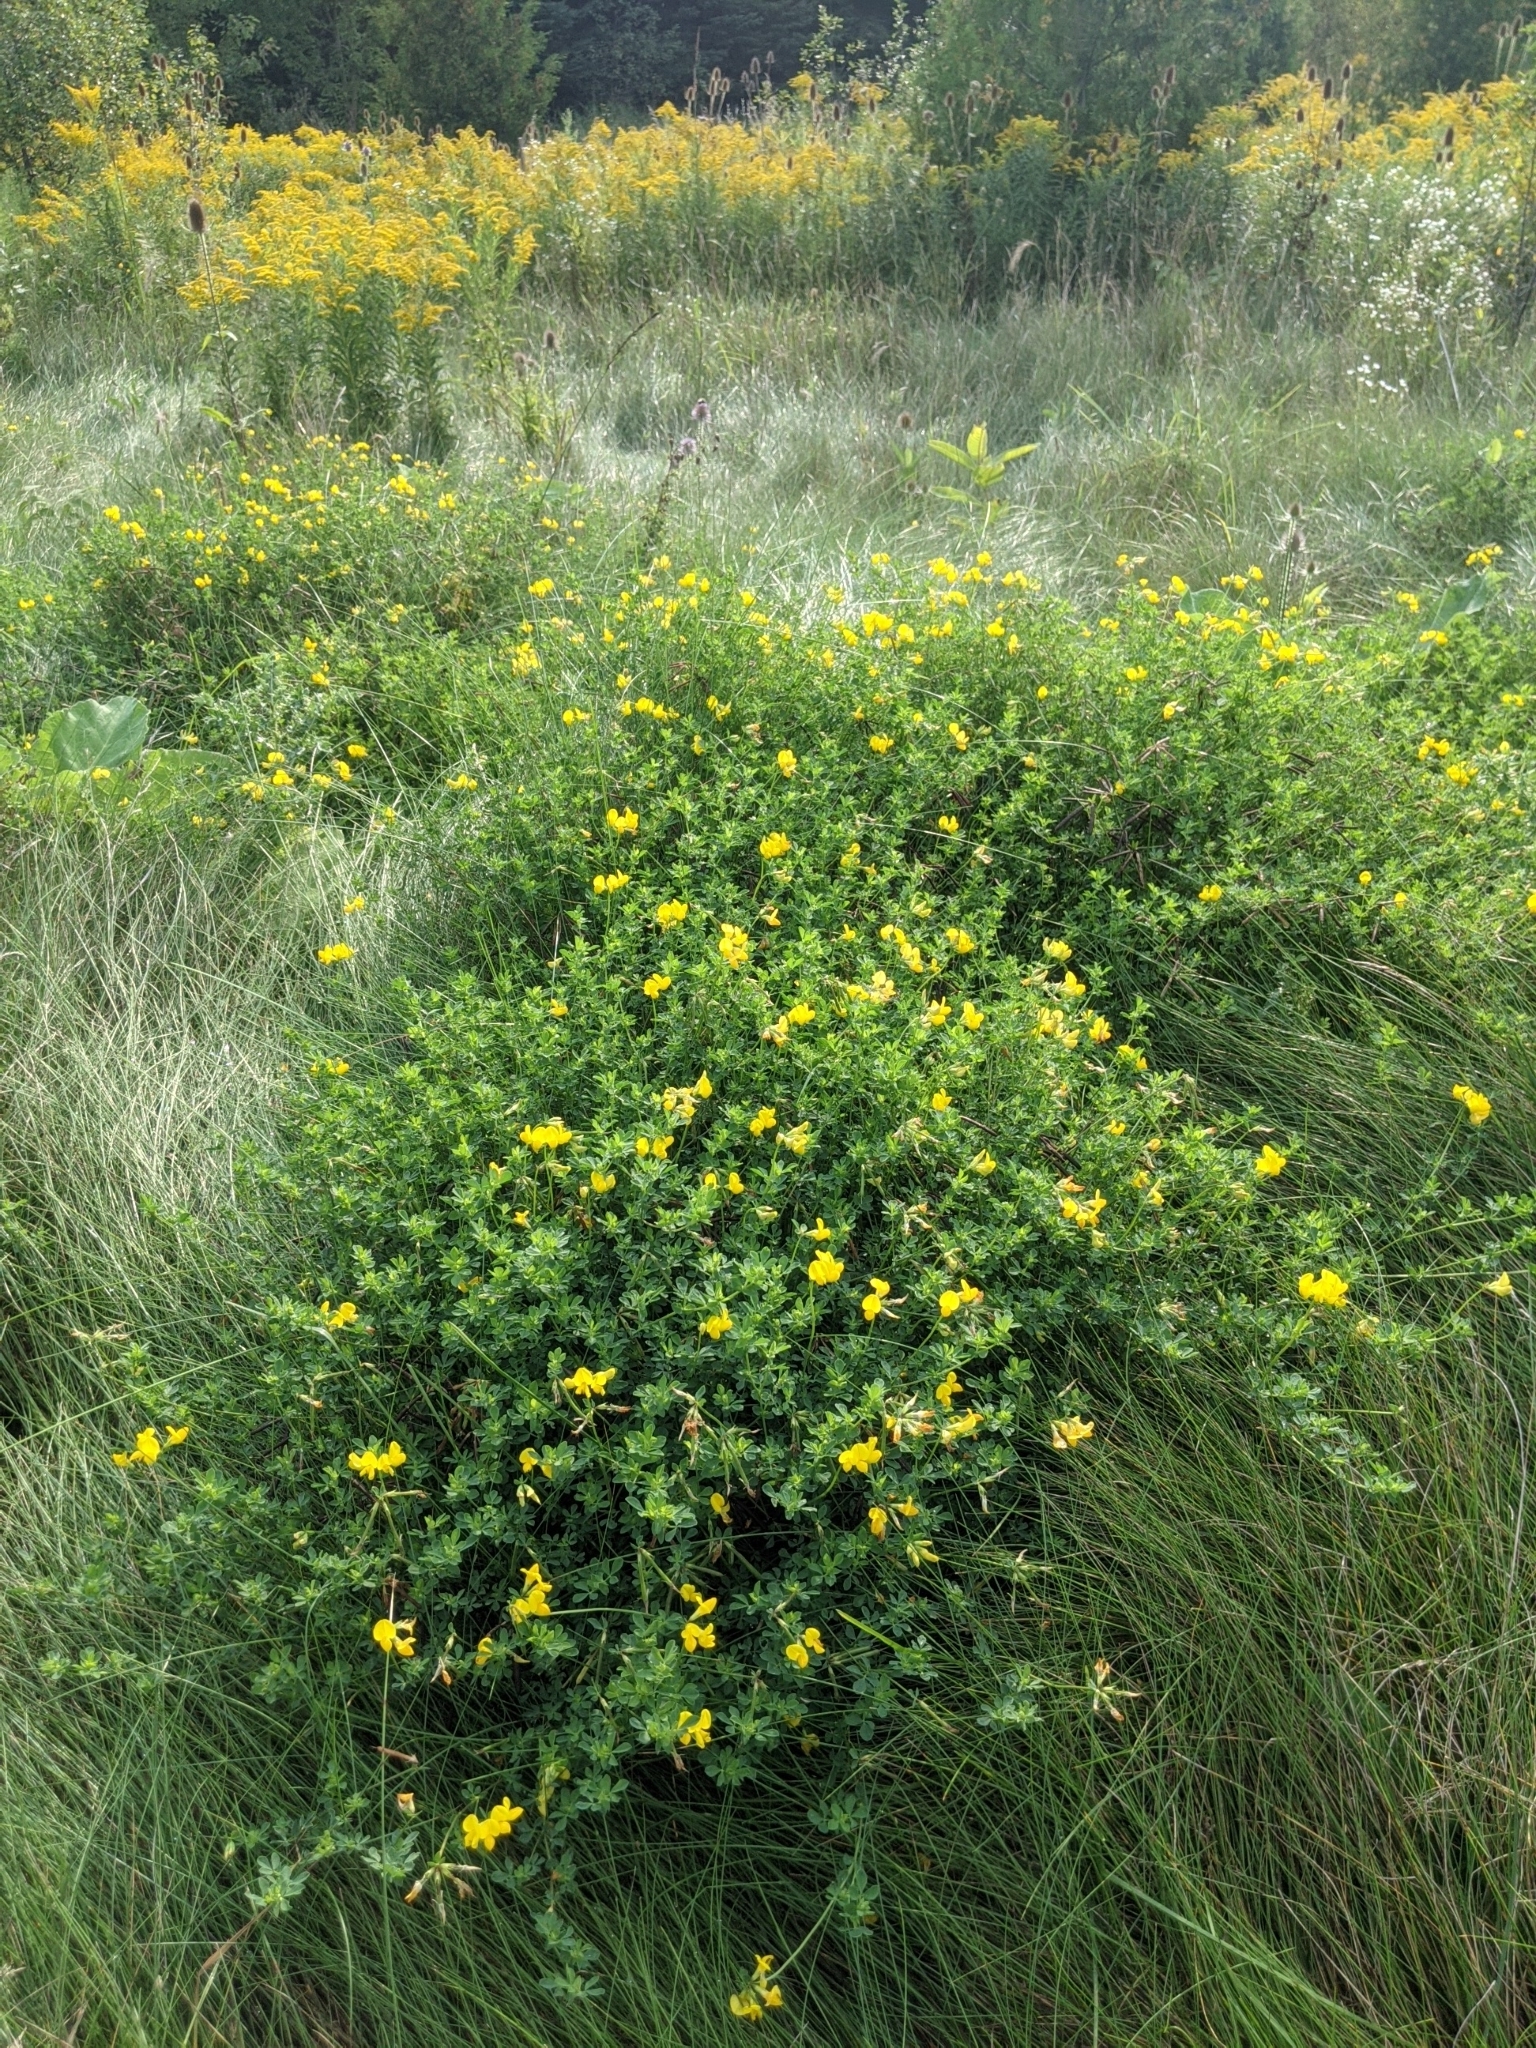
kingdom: Plantae
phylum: Tracheophyta
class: Magnoliopsida
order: Fabales
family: Fabaceae
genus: Lotus
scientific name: Lotus corniculatus
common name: Common bird's-foot-trefoil
